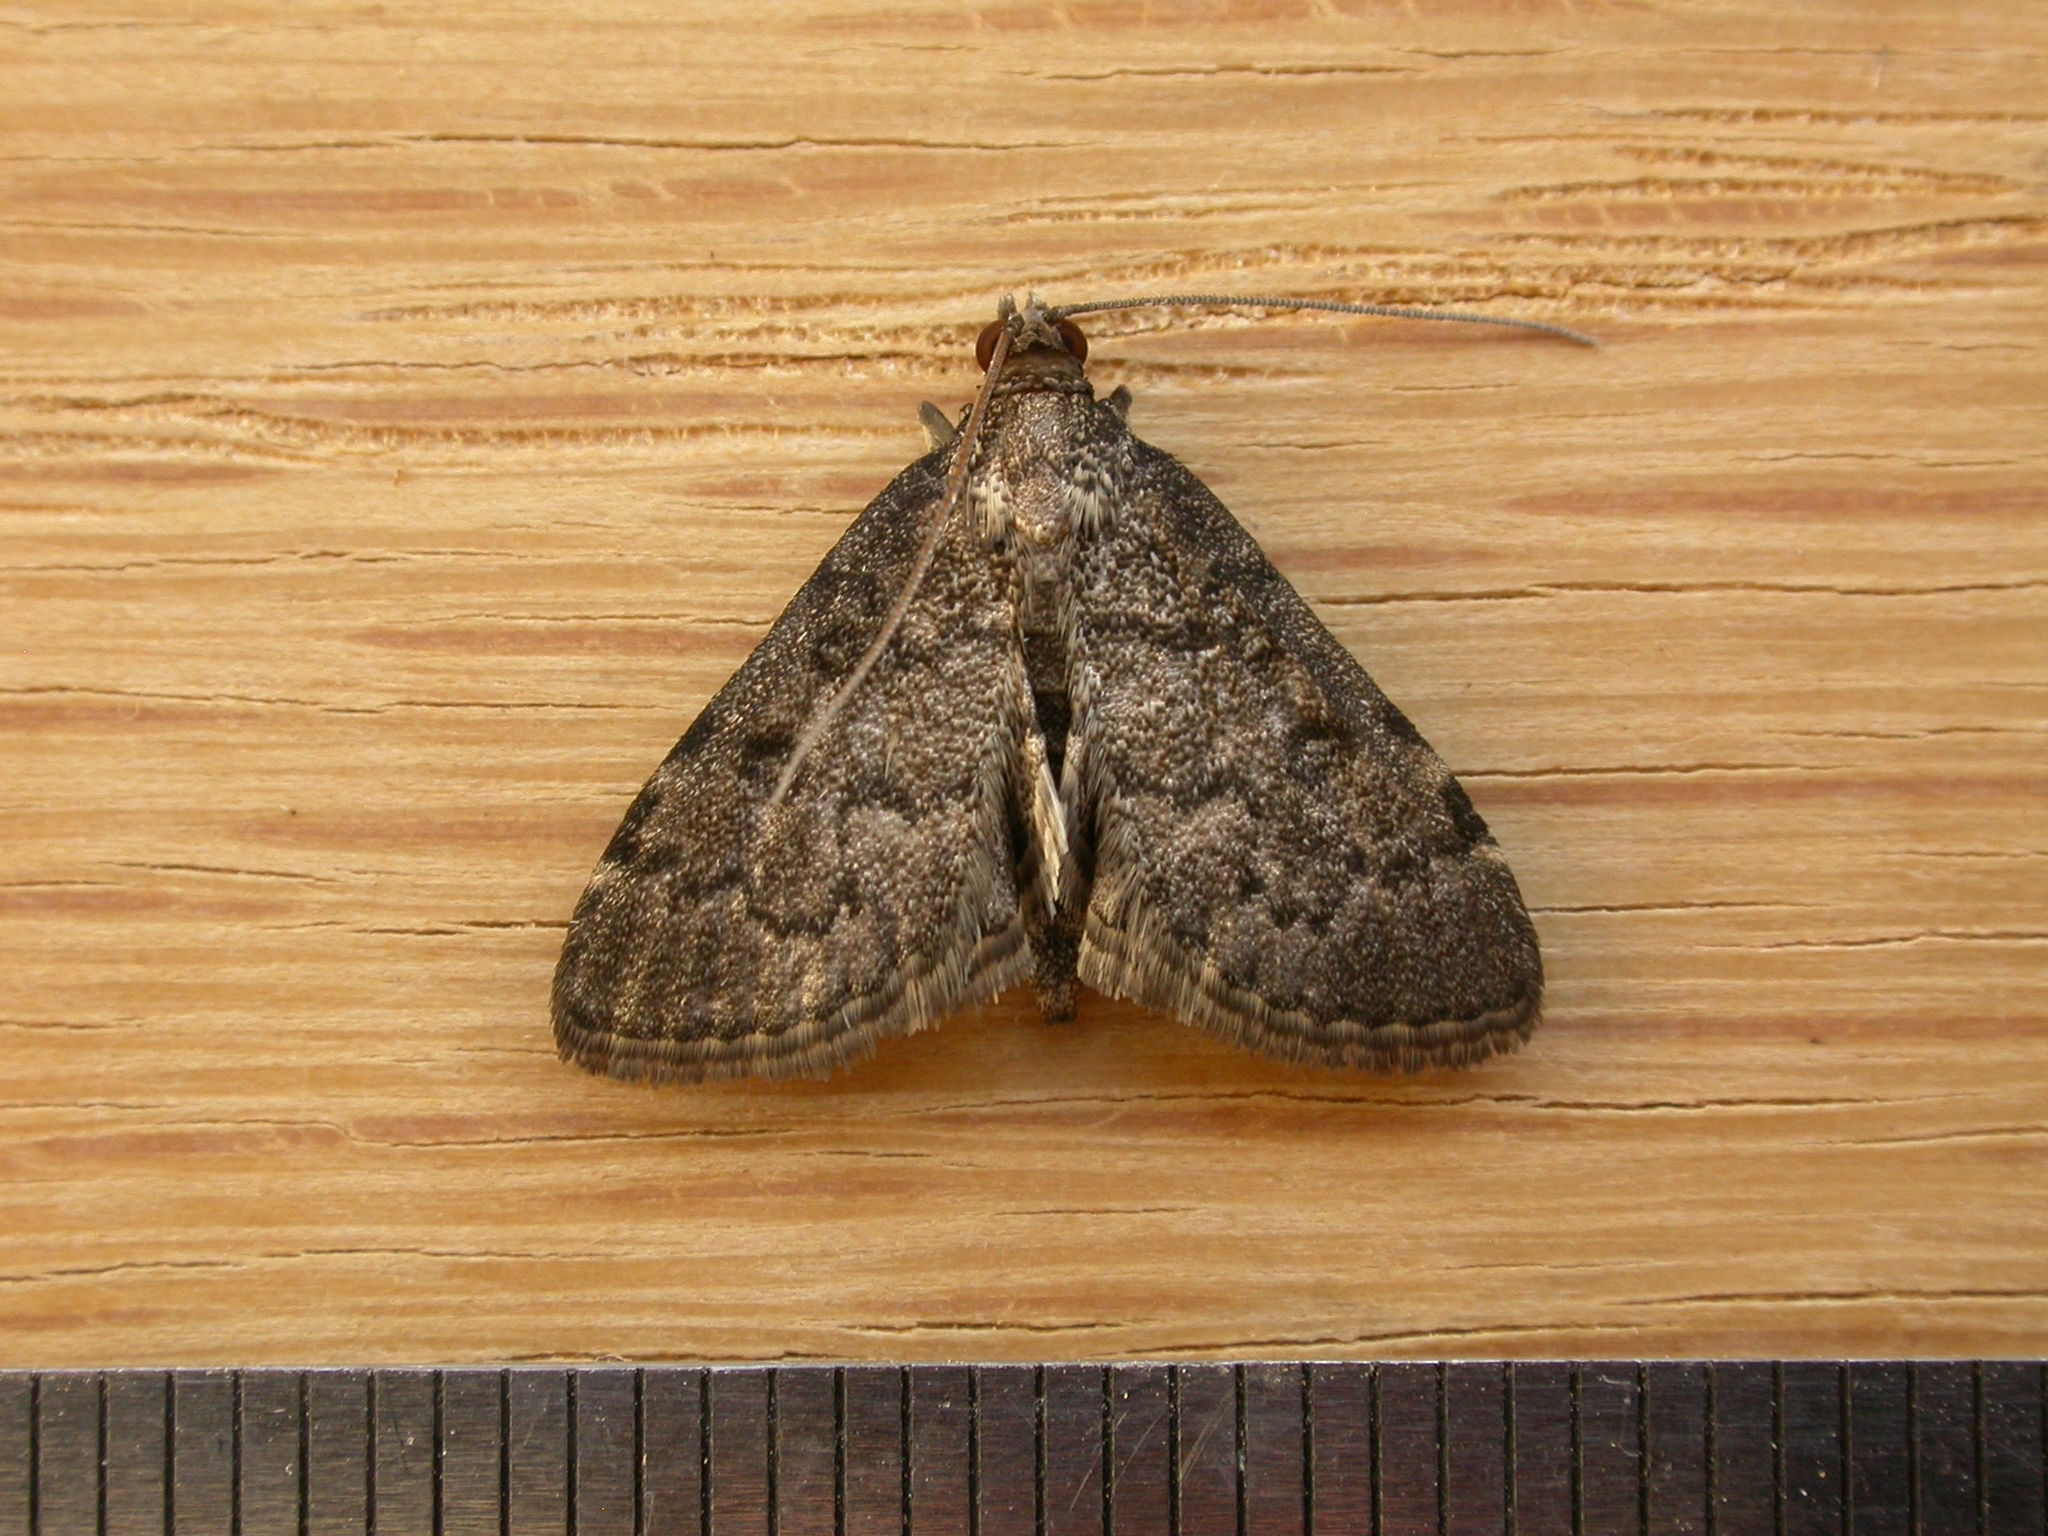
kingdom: Animalia
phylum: Arthropoda
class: Insecta
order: Lepidoptera
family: Crambidae
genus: Metasia
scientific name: Metasia liophaea
